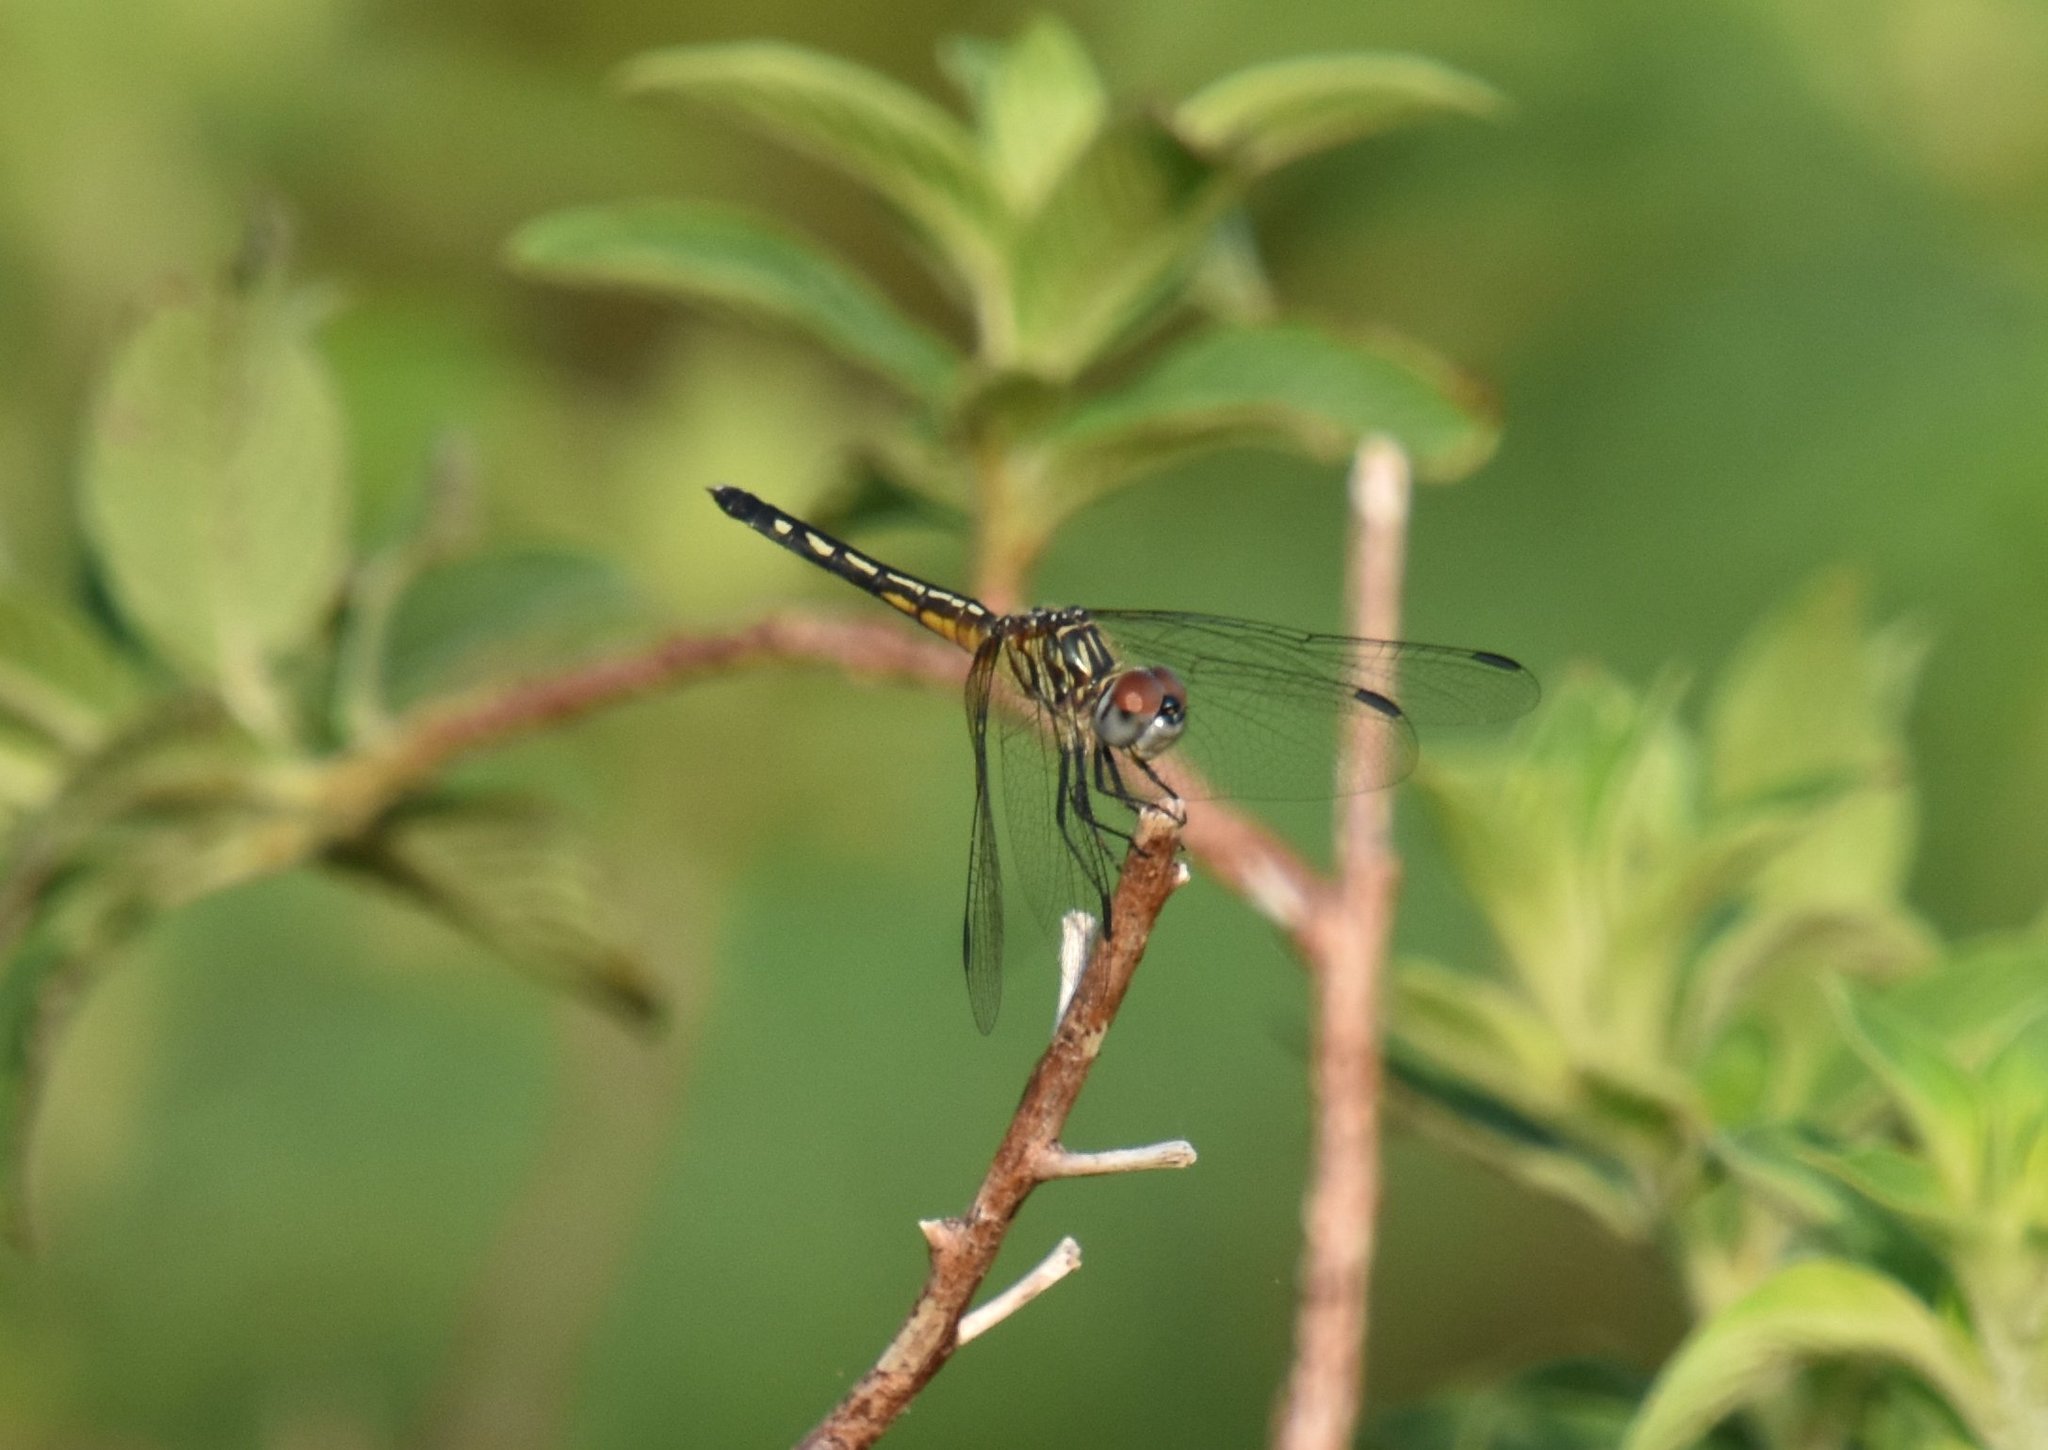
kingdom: Animalia
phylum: Arthropoda
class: Insecta
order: Odonata
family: Libellulidae
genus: Pachydiplax
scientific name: Pachydiplax longipennis
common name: Blue dasher
